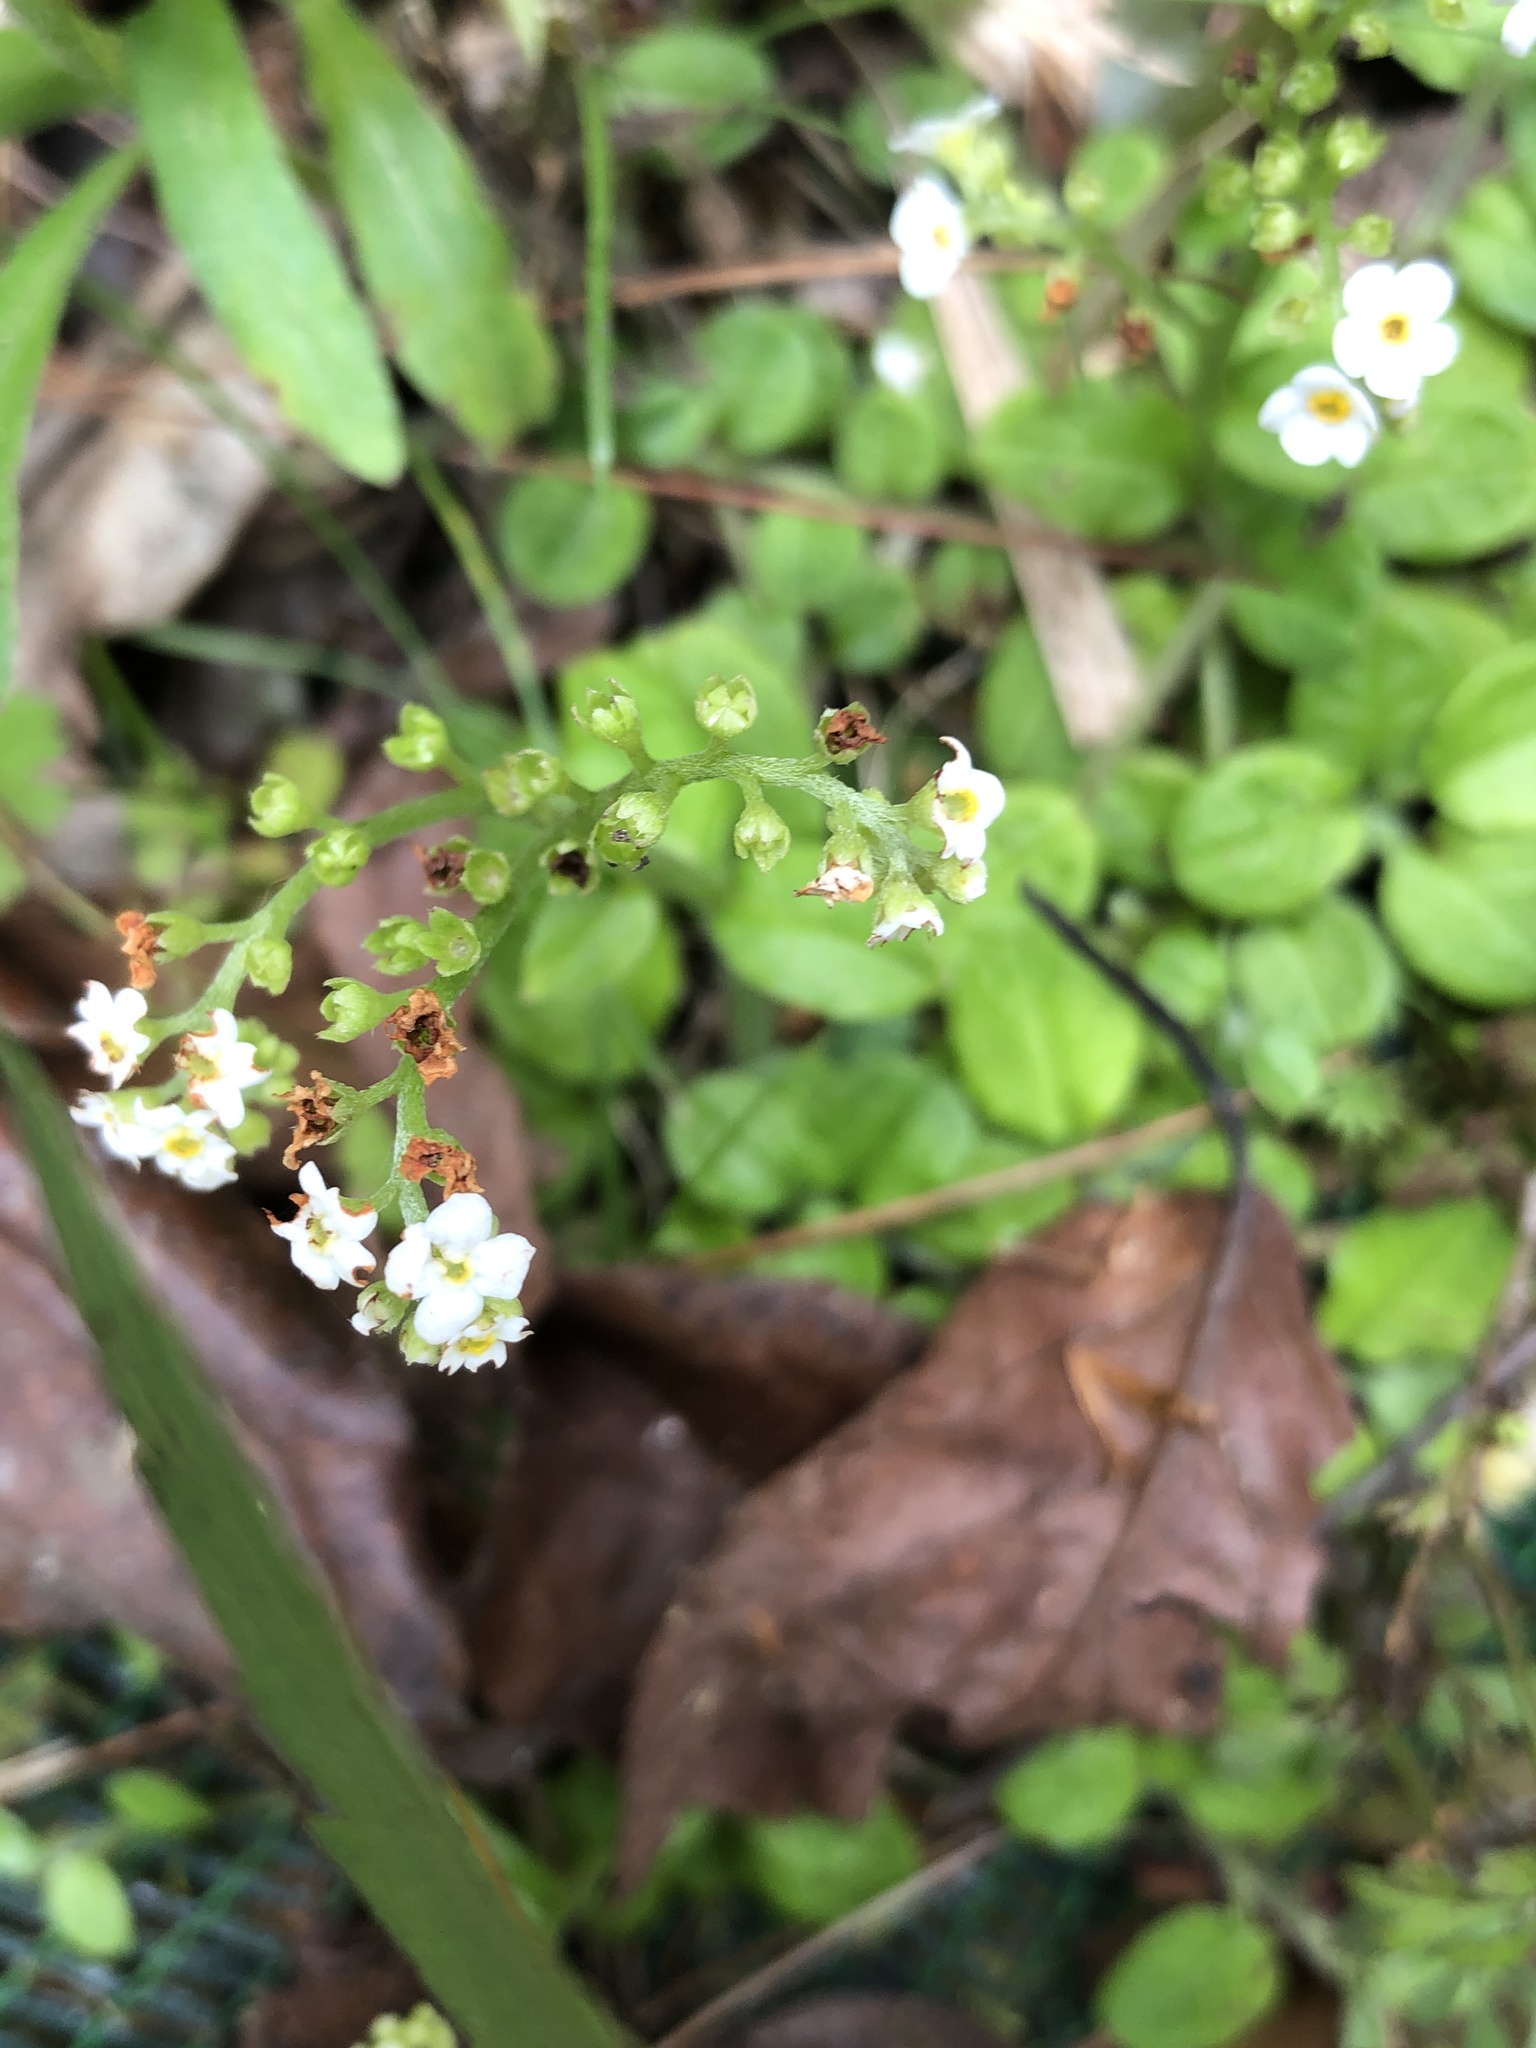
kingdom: Plantae
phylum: Tracheophyta
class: Magnoliopsida
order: Boraginales
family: Boraginaceae
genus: Trigonotis
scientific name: Trigonotis formosana
